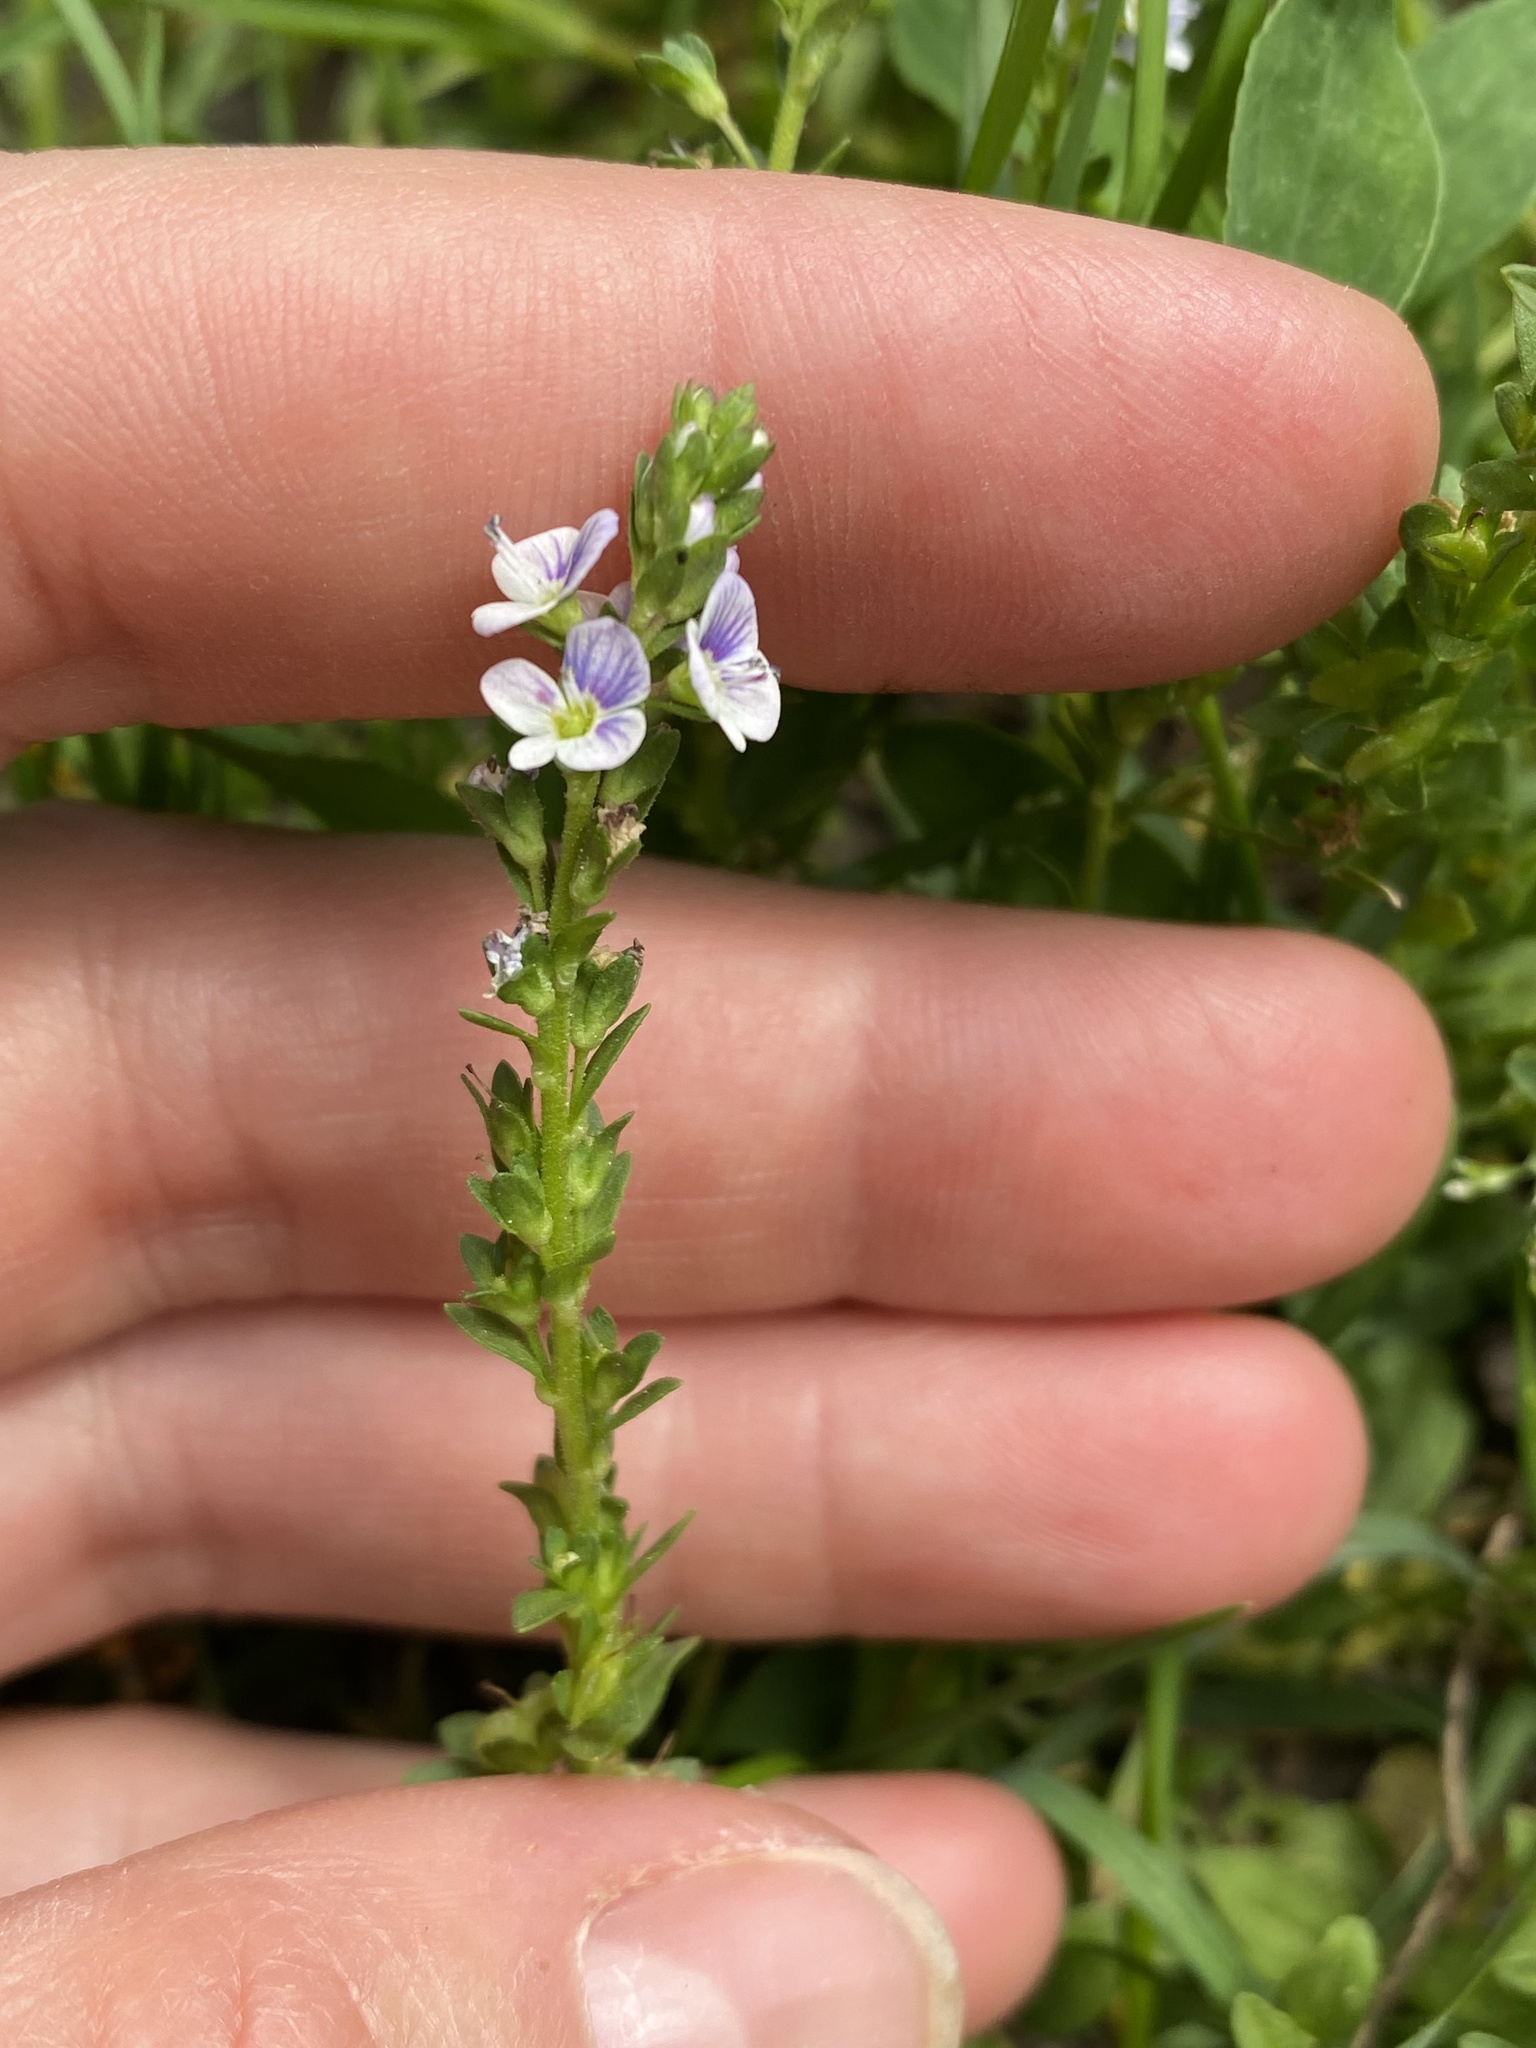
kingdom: Plantae
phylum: Tracheophyta
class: Magnoliopsida
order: Lamiales
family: Plantaginaceae
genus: Veronica
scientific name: Veronica serpyllifolia
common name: Thyme-leaved speedwell
